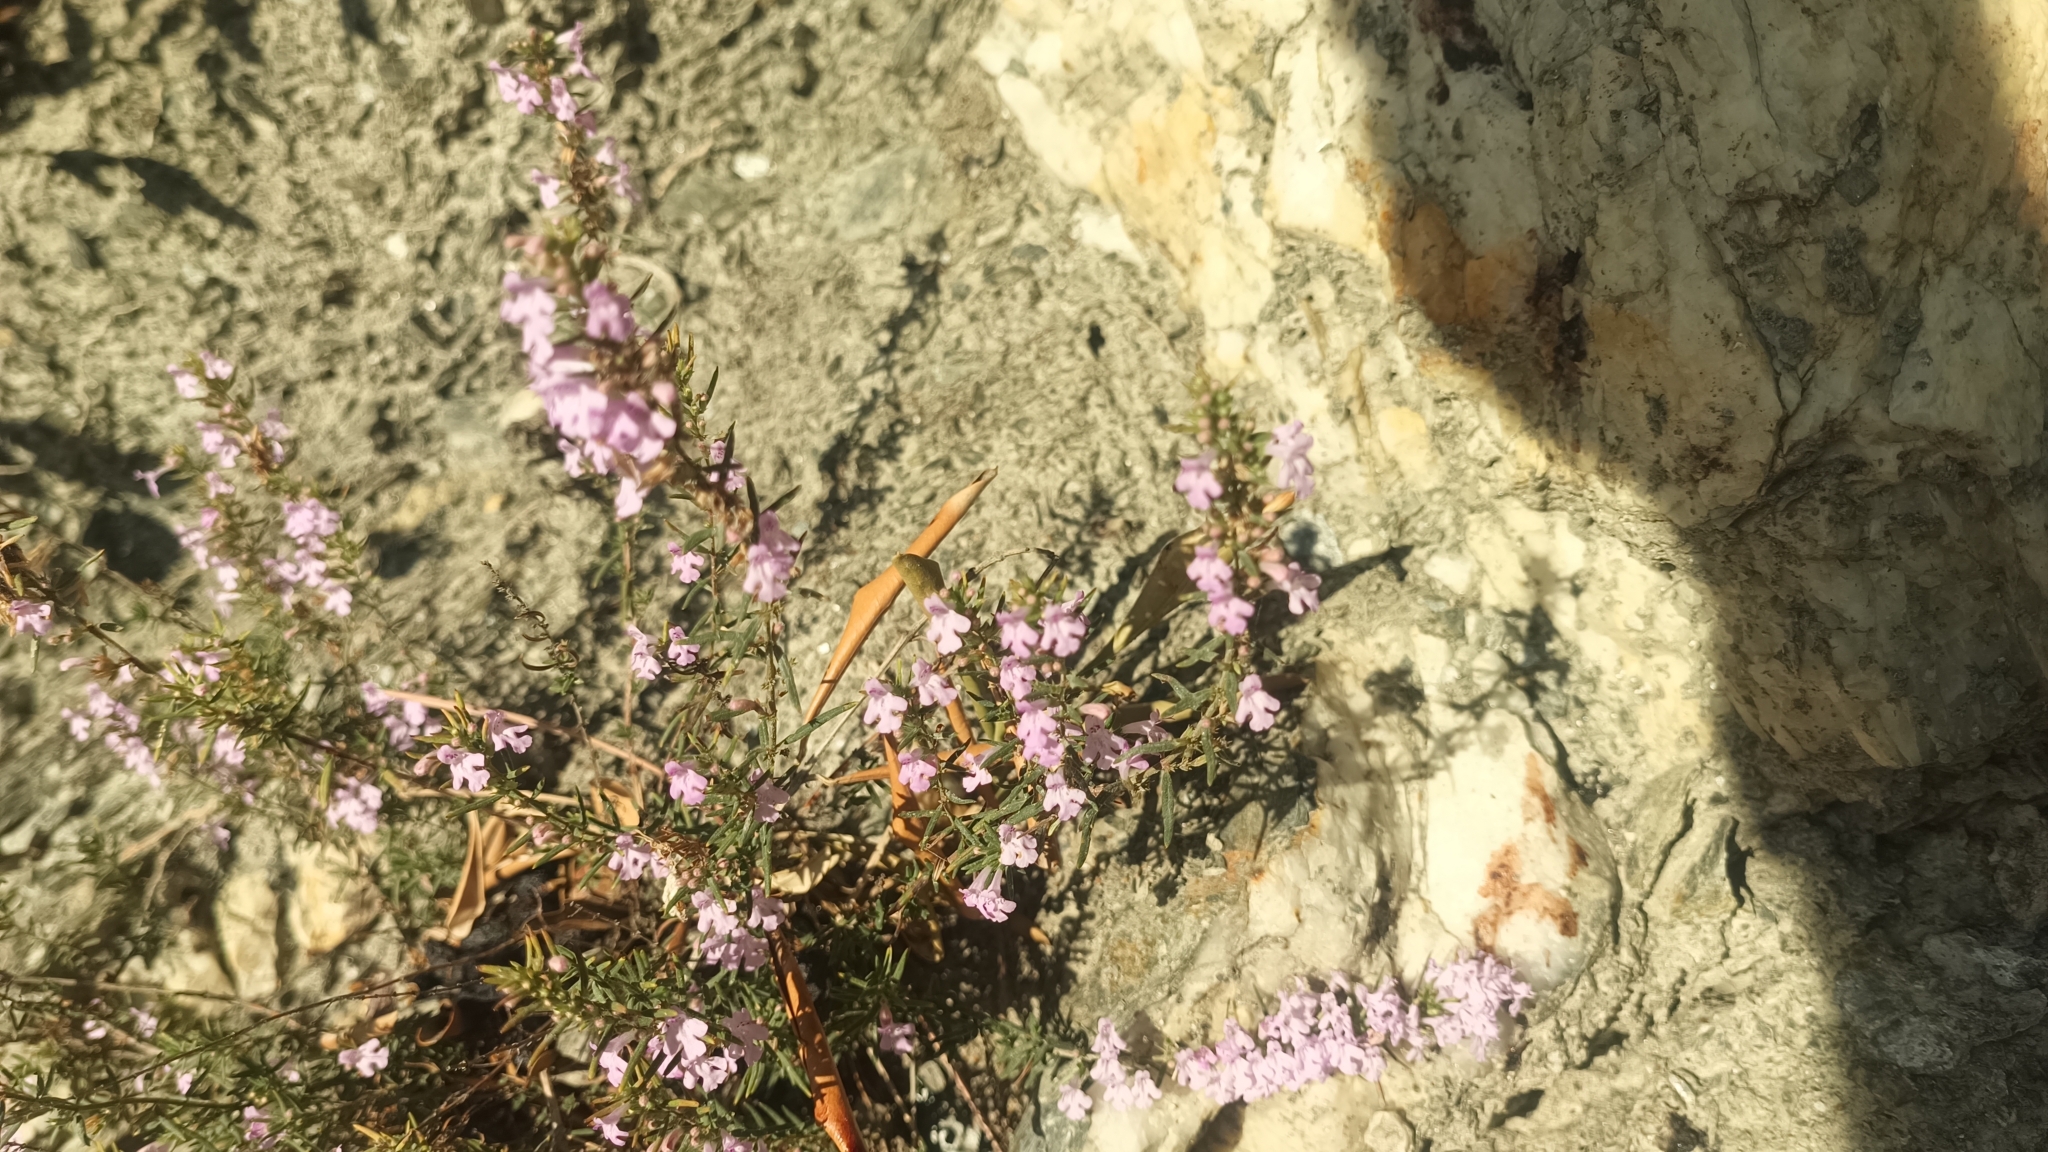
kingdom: Plantae
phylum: Tracheophyta
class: Magnoliopsida
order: Lamiales
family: Lamiaceae
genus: Micromeria
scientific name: Micromeria graeca
